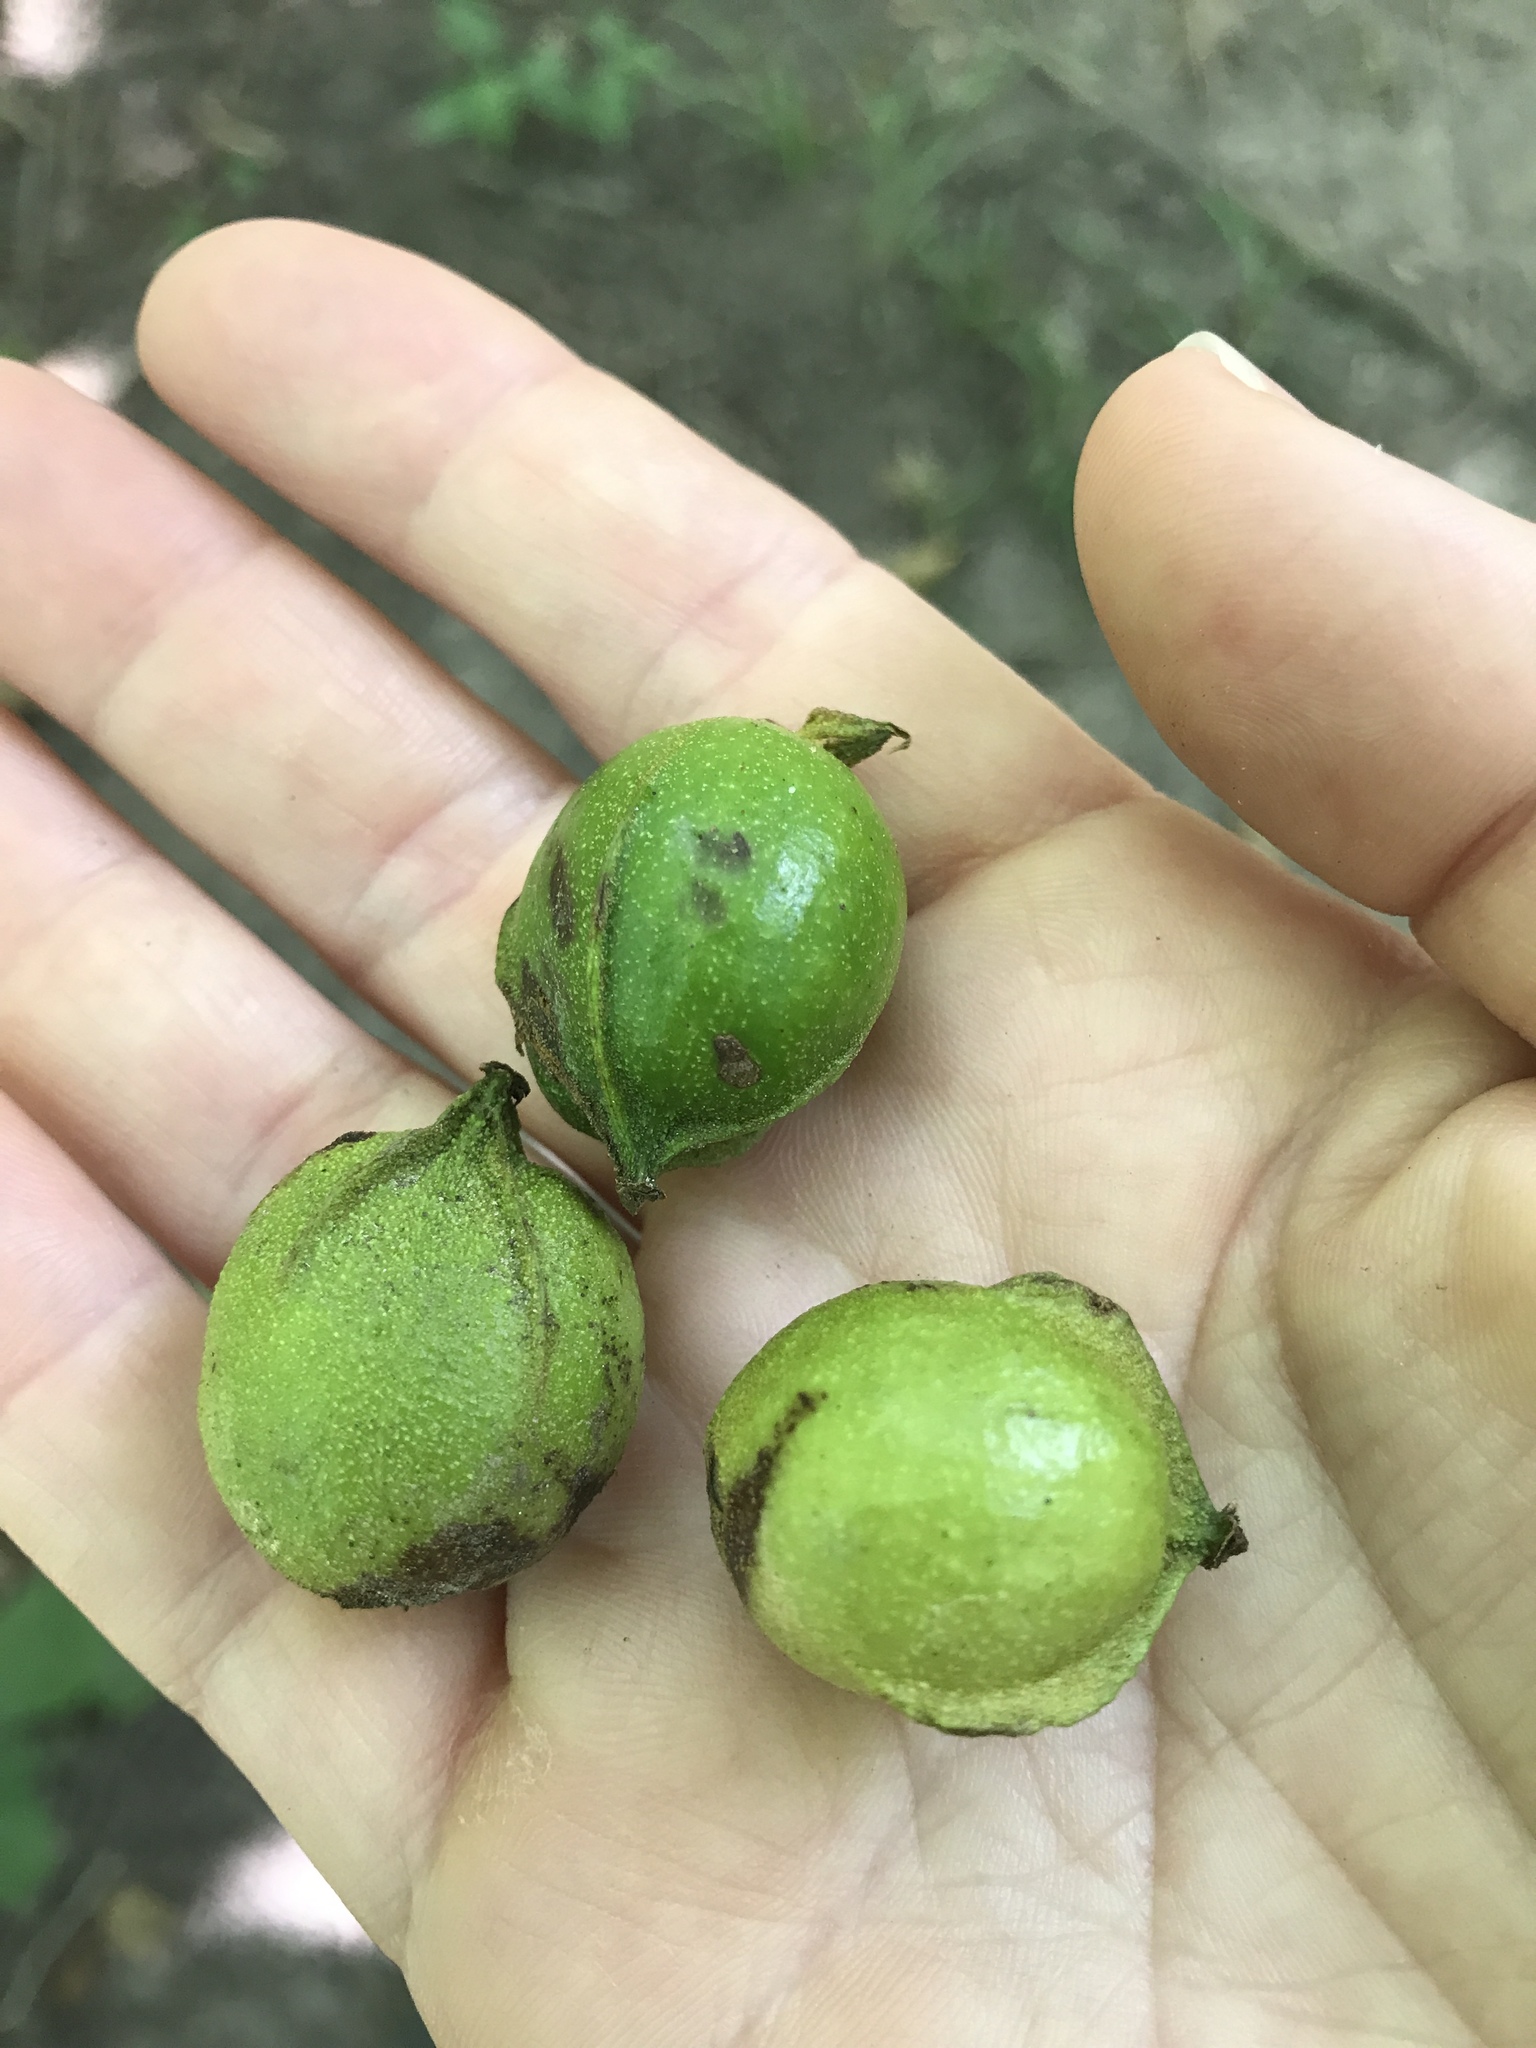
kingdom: Plantae
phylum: Tracheophyta
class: Magnoliopsida
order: Fagales
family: Juglandaceae
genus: Carya
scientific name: Carya cordiformis
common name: Bitternut hickory
